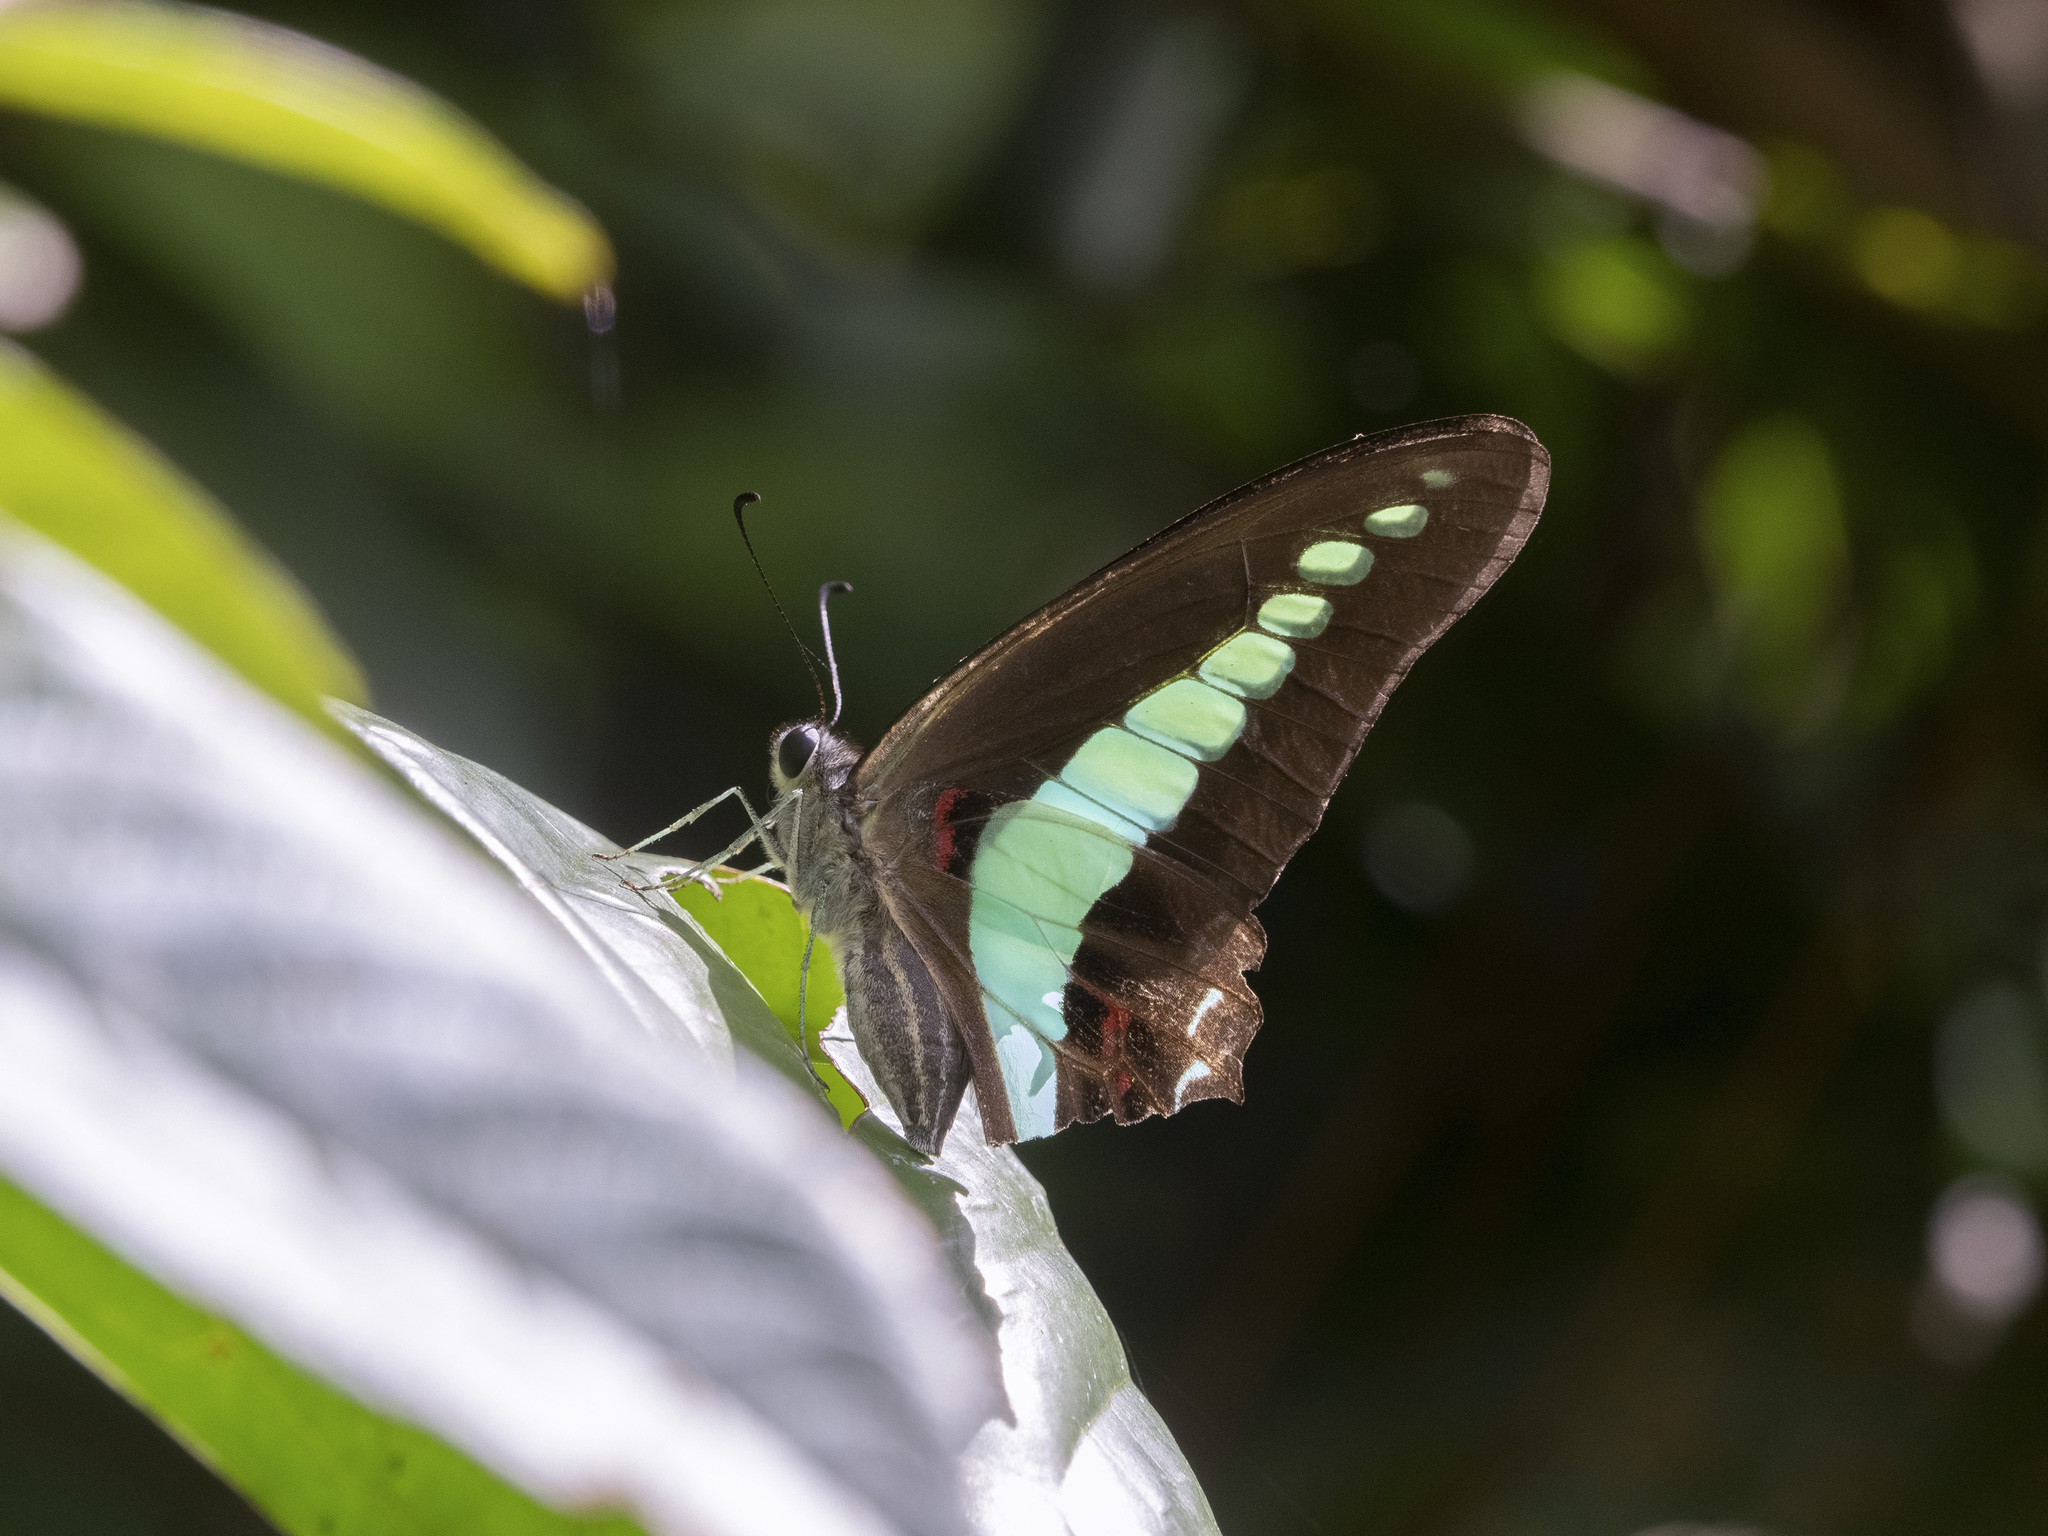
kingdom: Fungi
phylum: Ascomycota
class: Sordariomycetes
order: Microascales
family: Microascaceae
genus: Graphium
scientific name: Graphium sarpedon
